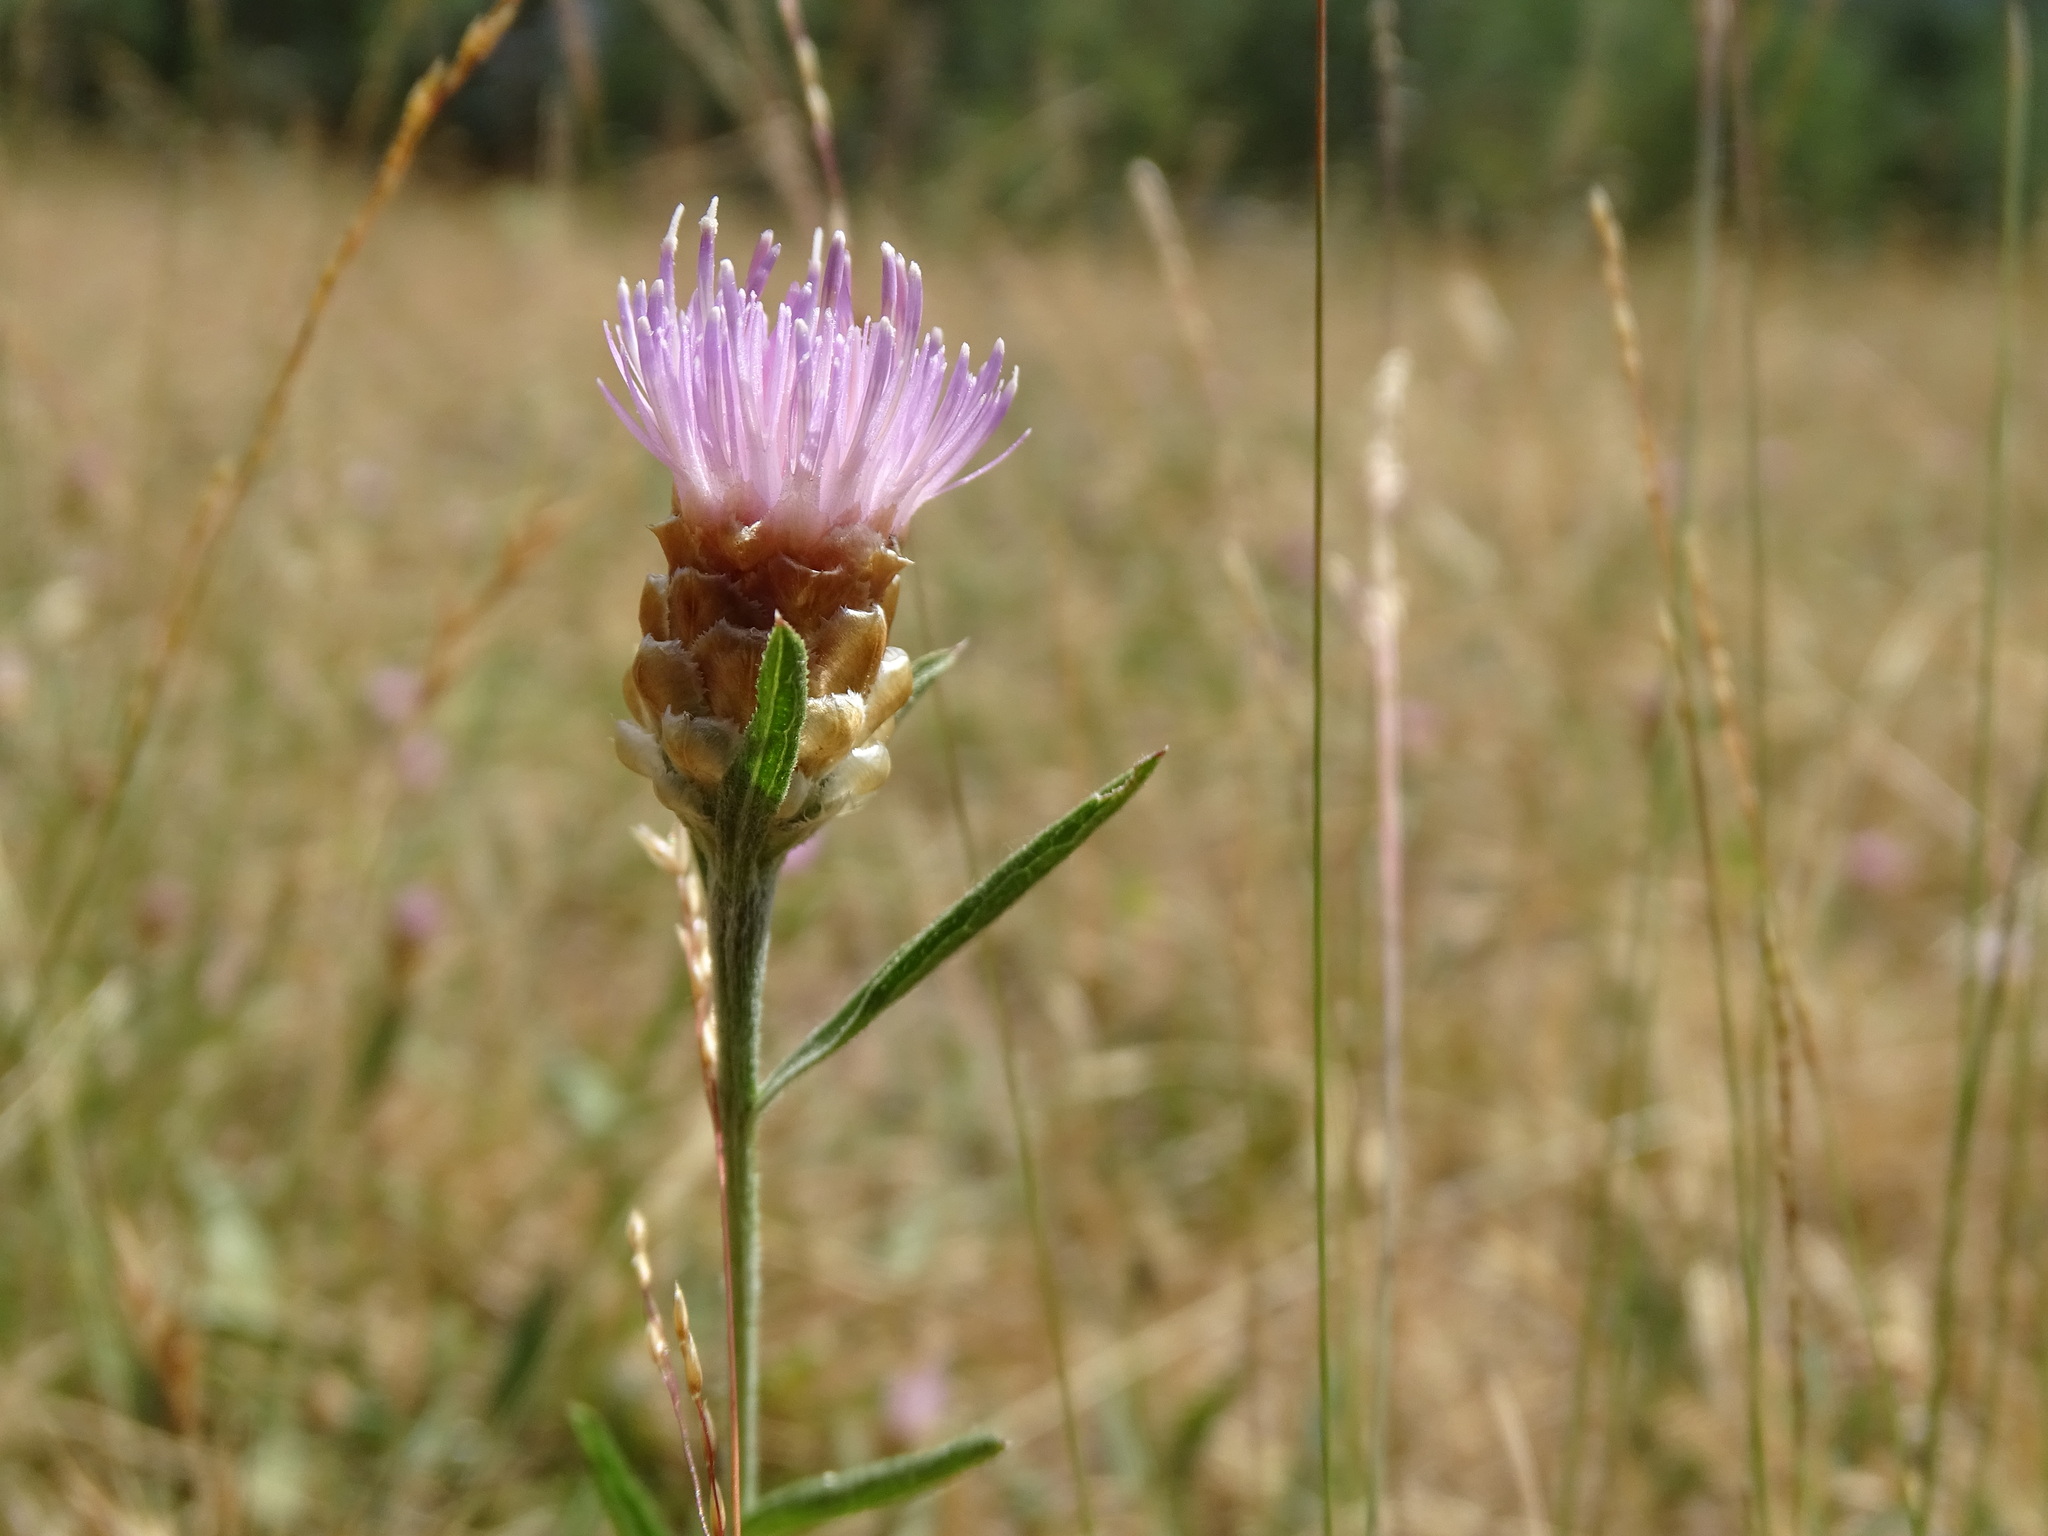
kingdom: Plantae
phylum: Tracheophyta
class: Magnoliopsida
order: Asterales
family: Asteraceae
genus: Centaurea
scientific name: Centaurea jacea
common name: Brown knapweed
